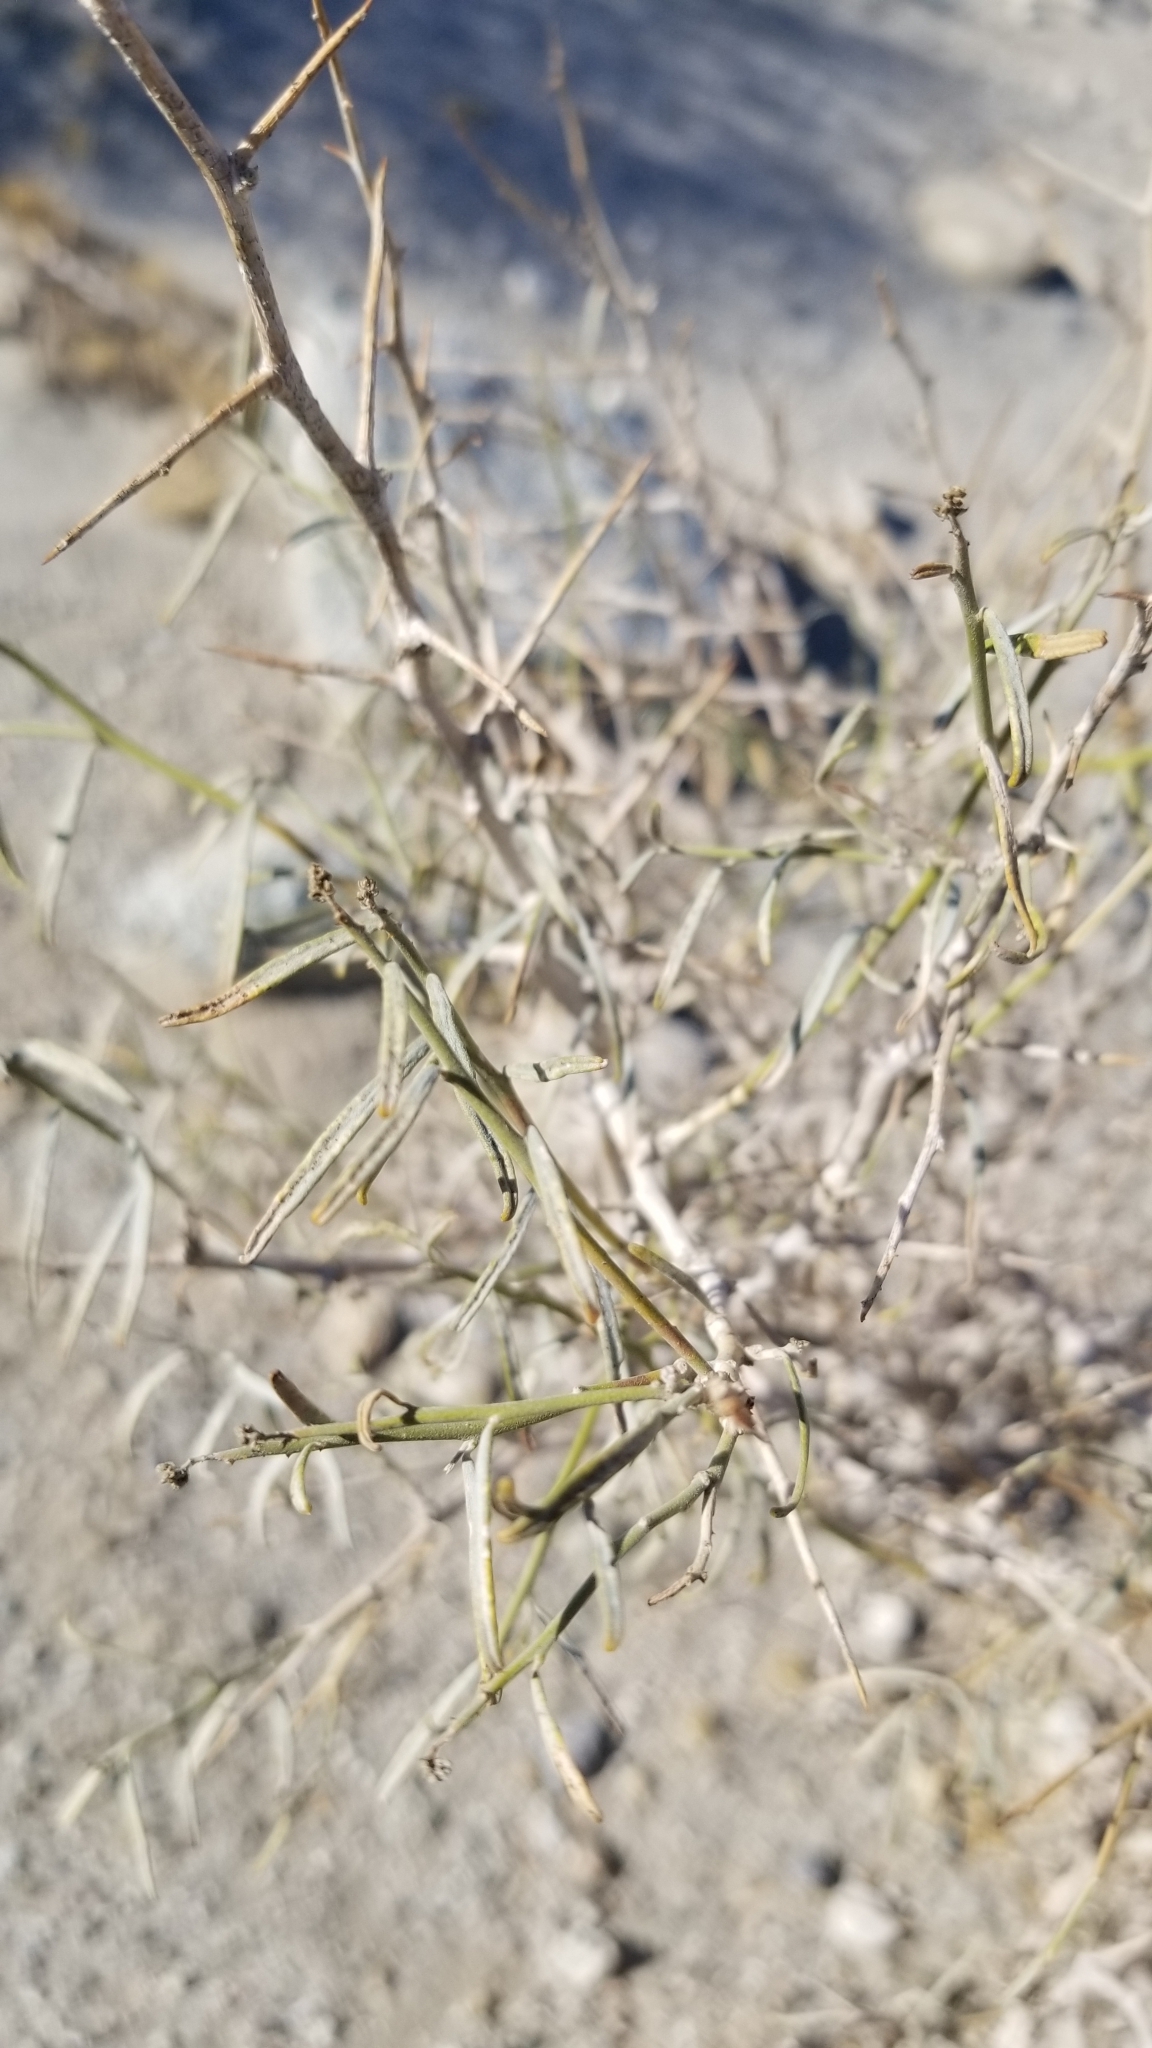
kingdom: Plantae
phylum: Tracheophyta
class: Magnoliopsida
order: Fabales
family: Fabaceae
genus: Psorothamnus
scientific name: Psorothamnus schottii
